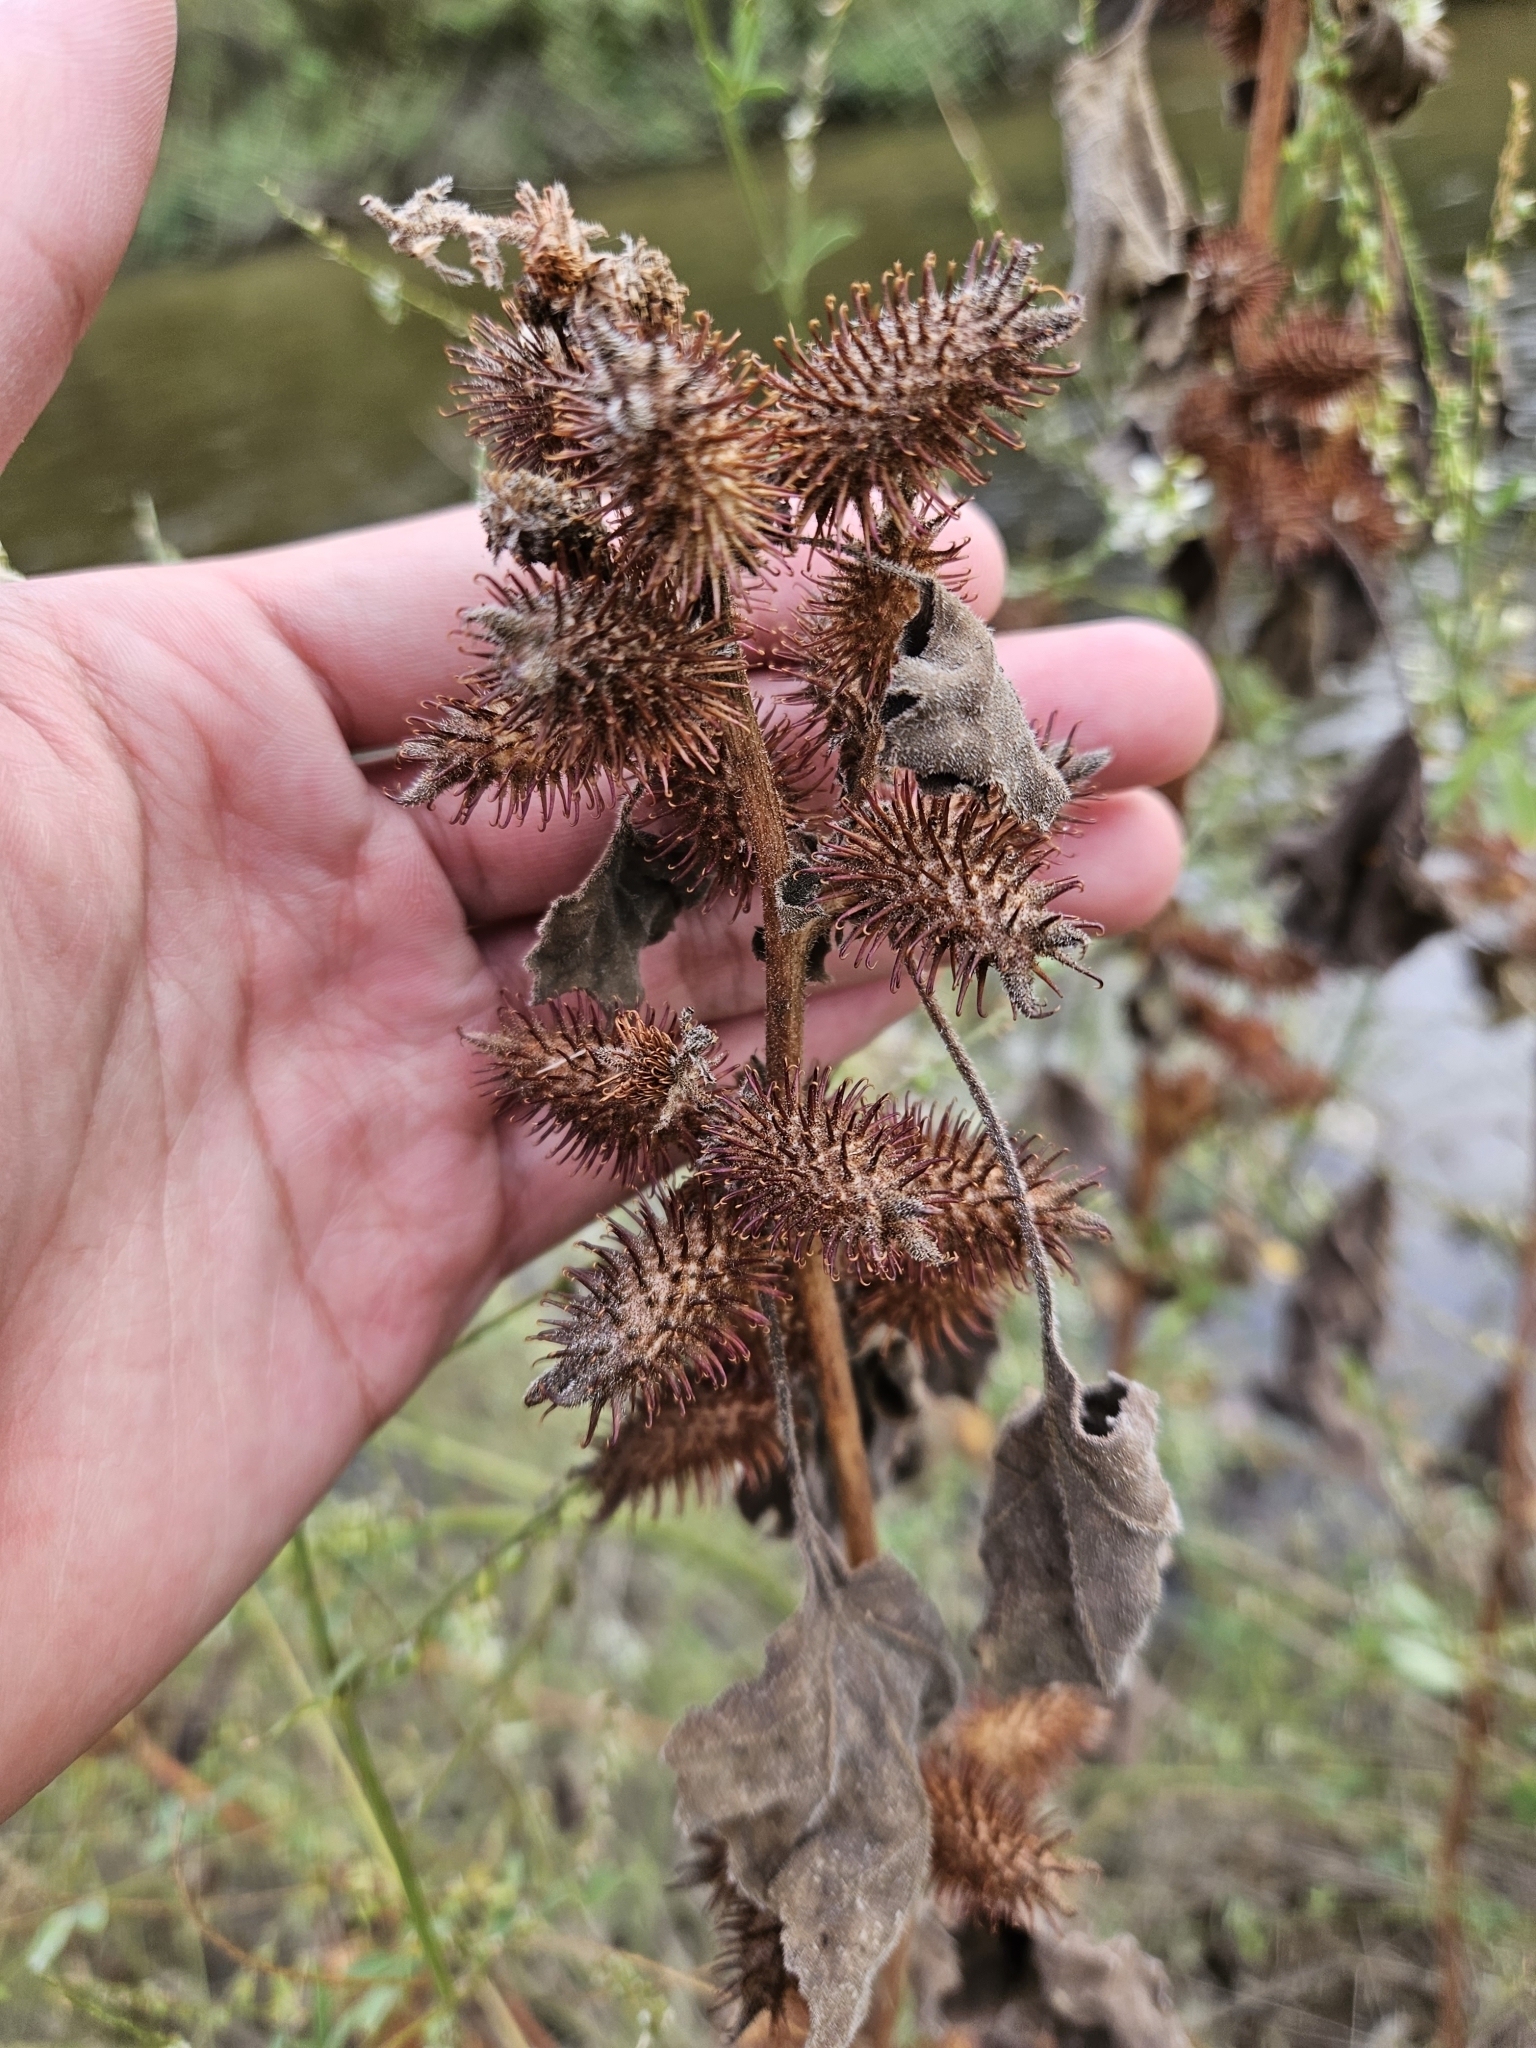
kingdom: Plantae
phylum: Tracheophyta
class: Magnoliopsida
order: Asterales
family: Asteraceae
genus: Xanthium
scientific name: Xanthium strumarium
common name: Rough cocklebur
